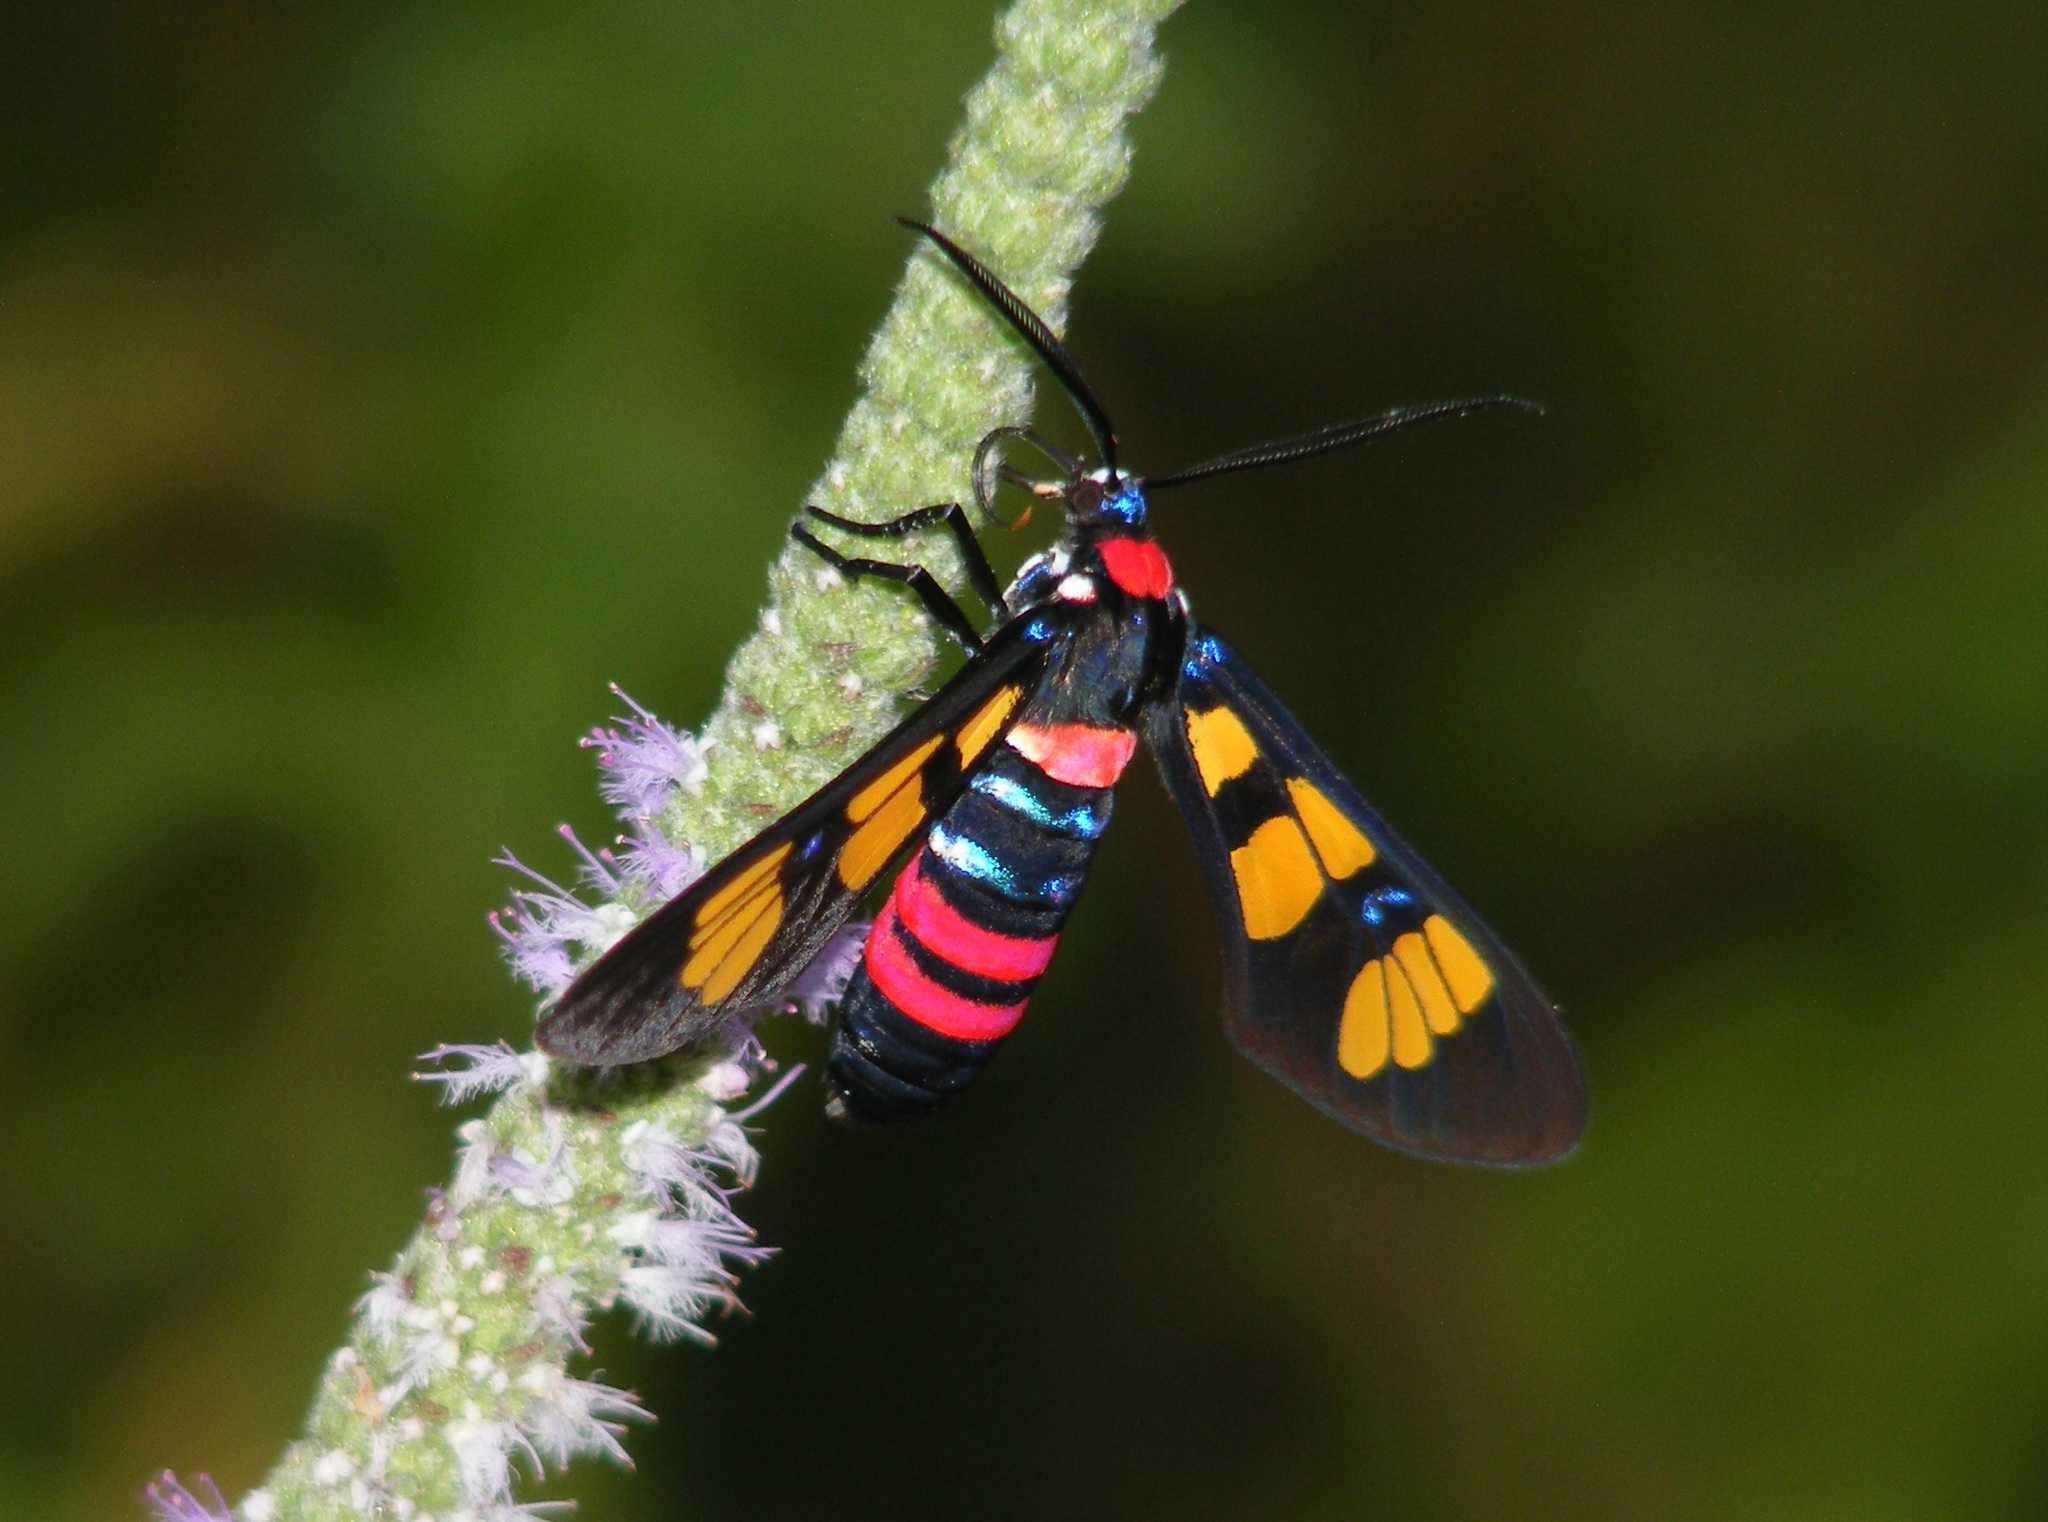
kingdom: Animalia
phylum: Arthropoda
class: Insecta
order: Lepidoptera
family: Erebidae
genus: Euchromia
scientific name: Euchromia polymena
